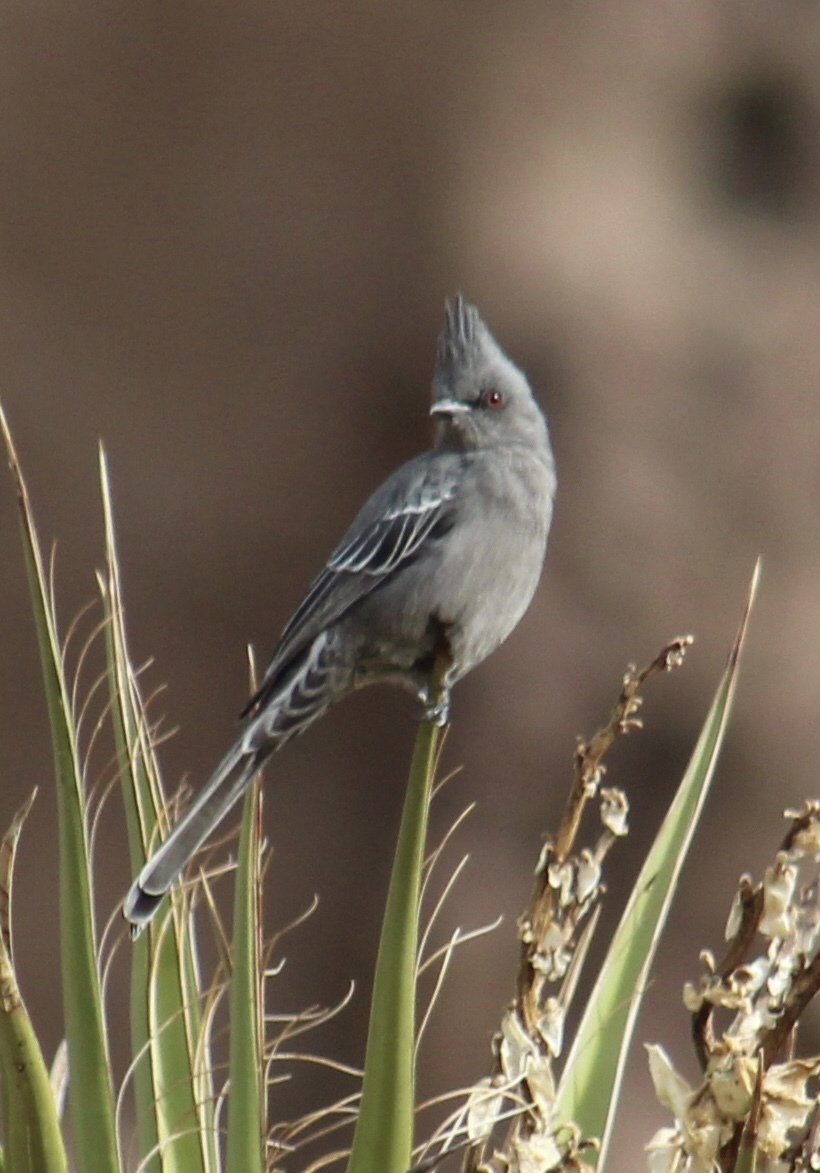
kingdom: Animalia
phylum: Chordata
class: Aves
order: Passeriformes
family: Ptilogonatidae
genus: Phainopepla
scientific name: Phainopepla nitens
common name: Phainopepla
